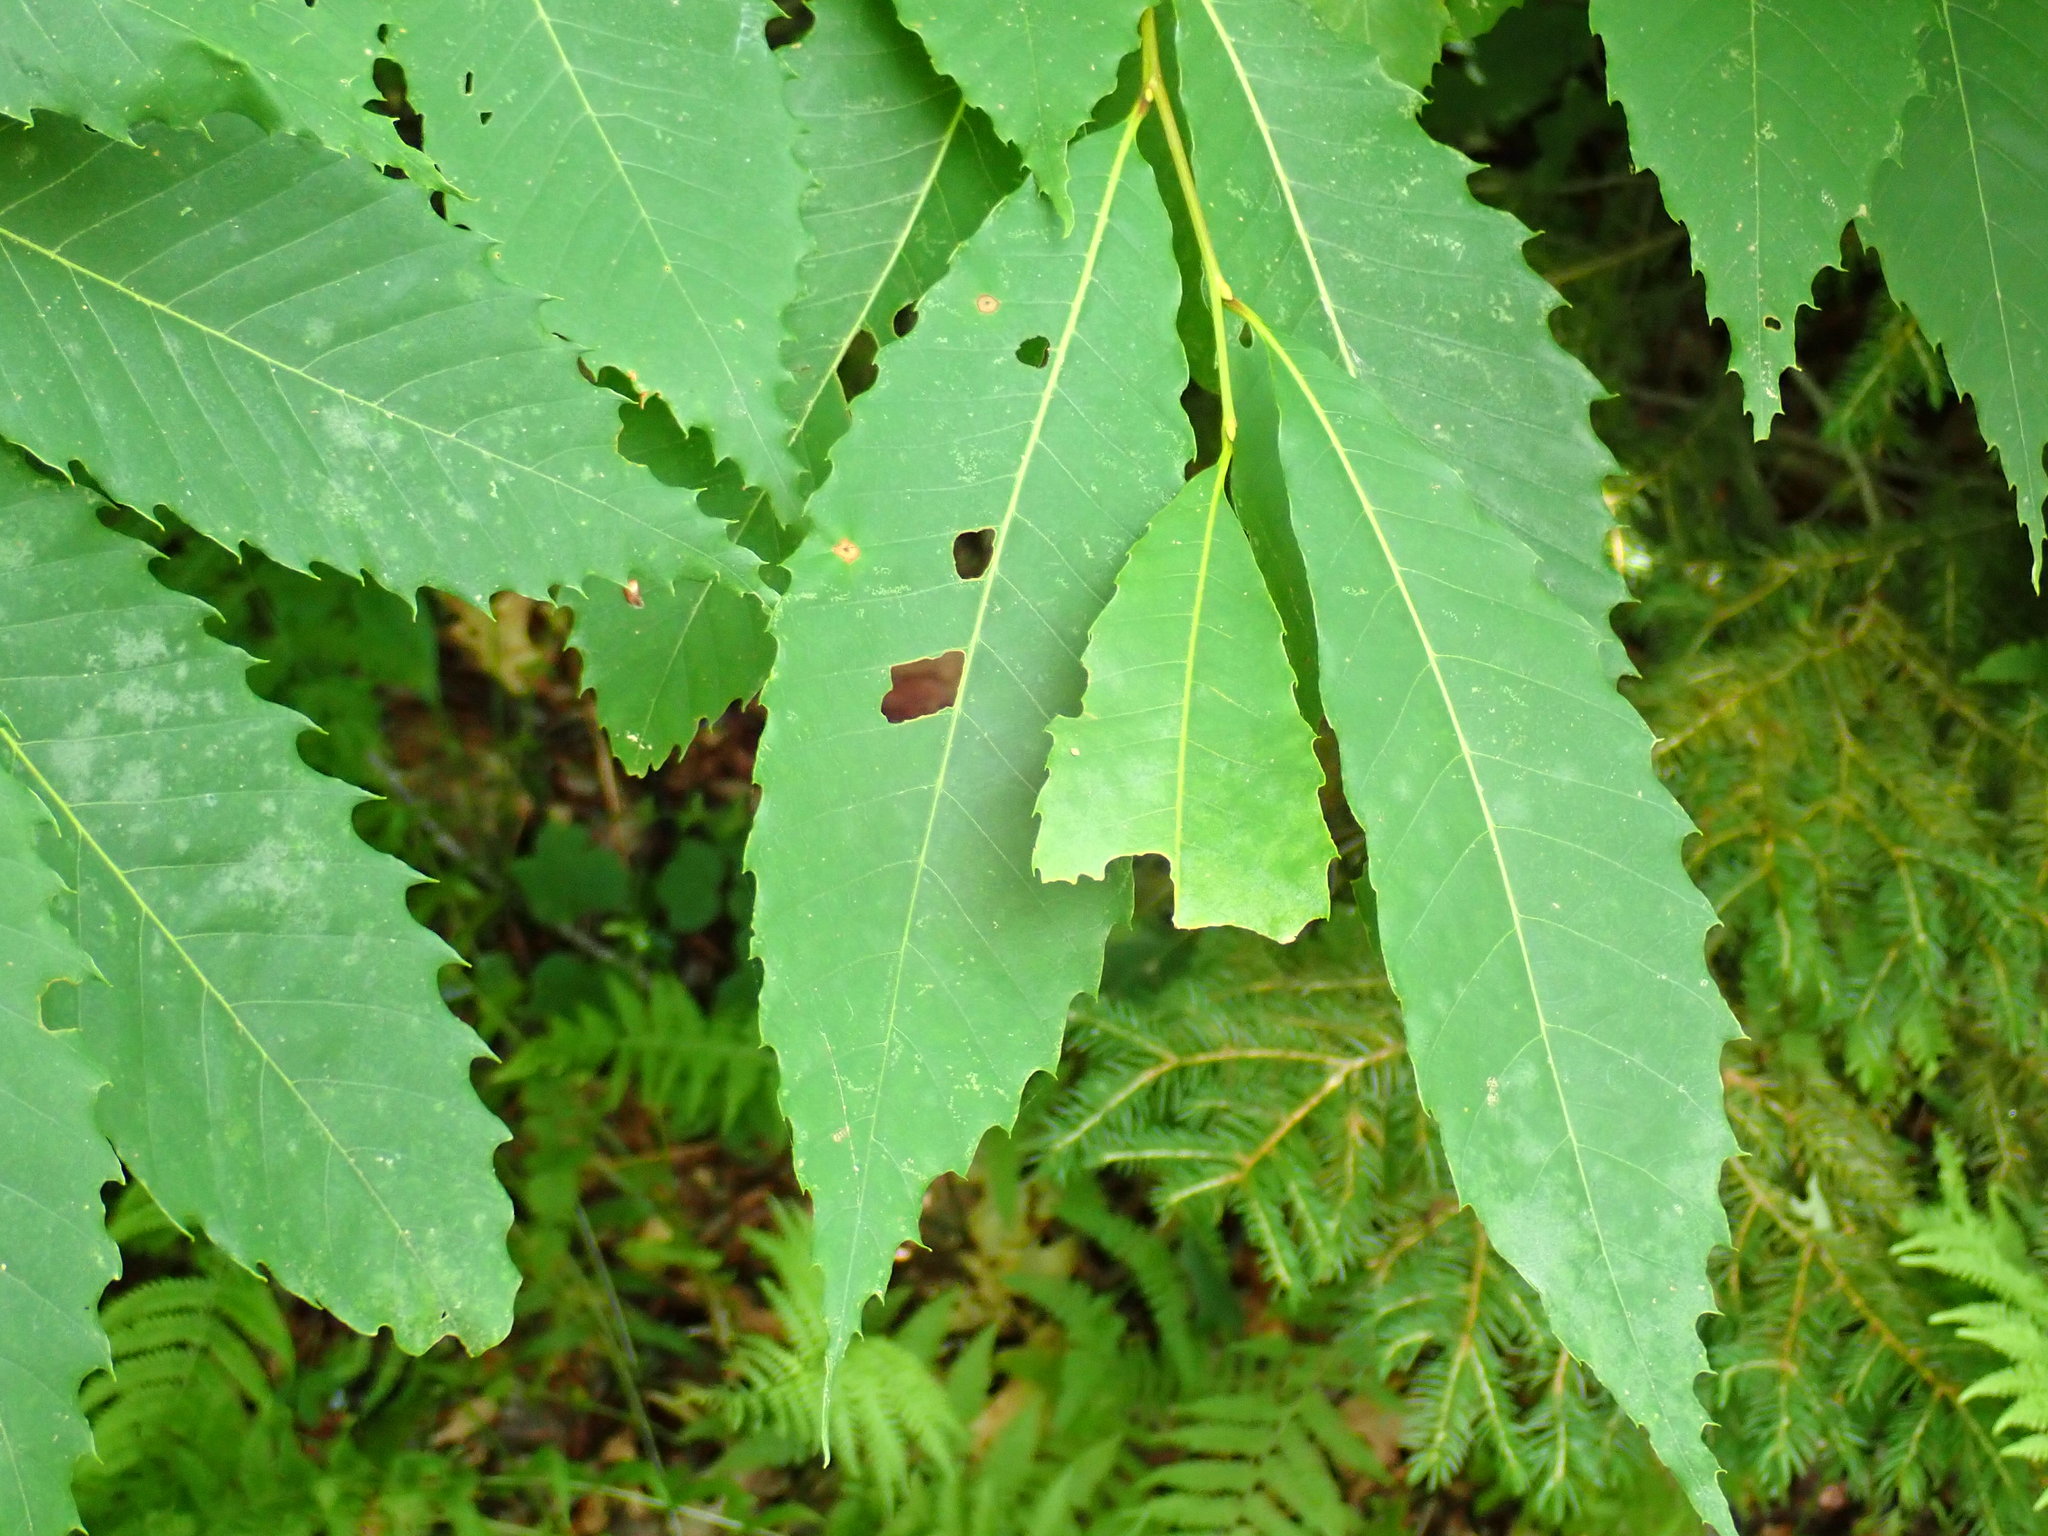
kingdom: Plantae
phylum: Tracheophyta
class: Magnoliopsida
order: Fagales
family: Fagaceae
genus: Castanea
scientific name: Castanea dentata
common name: American chestnut
